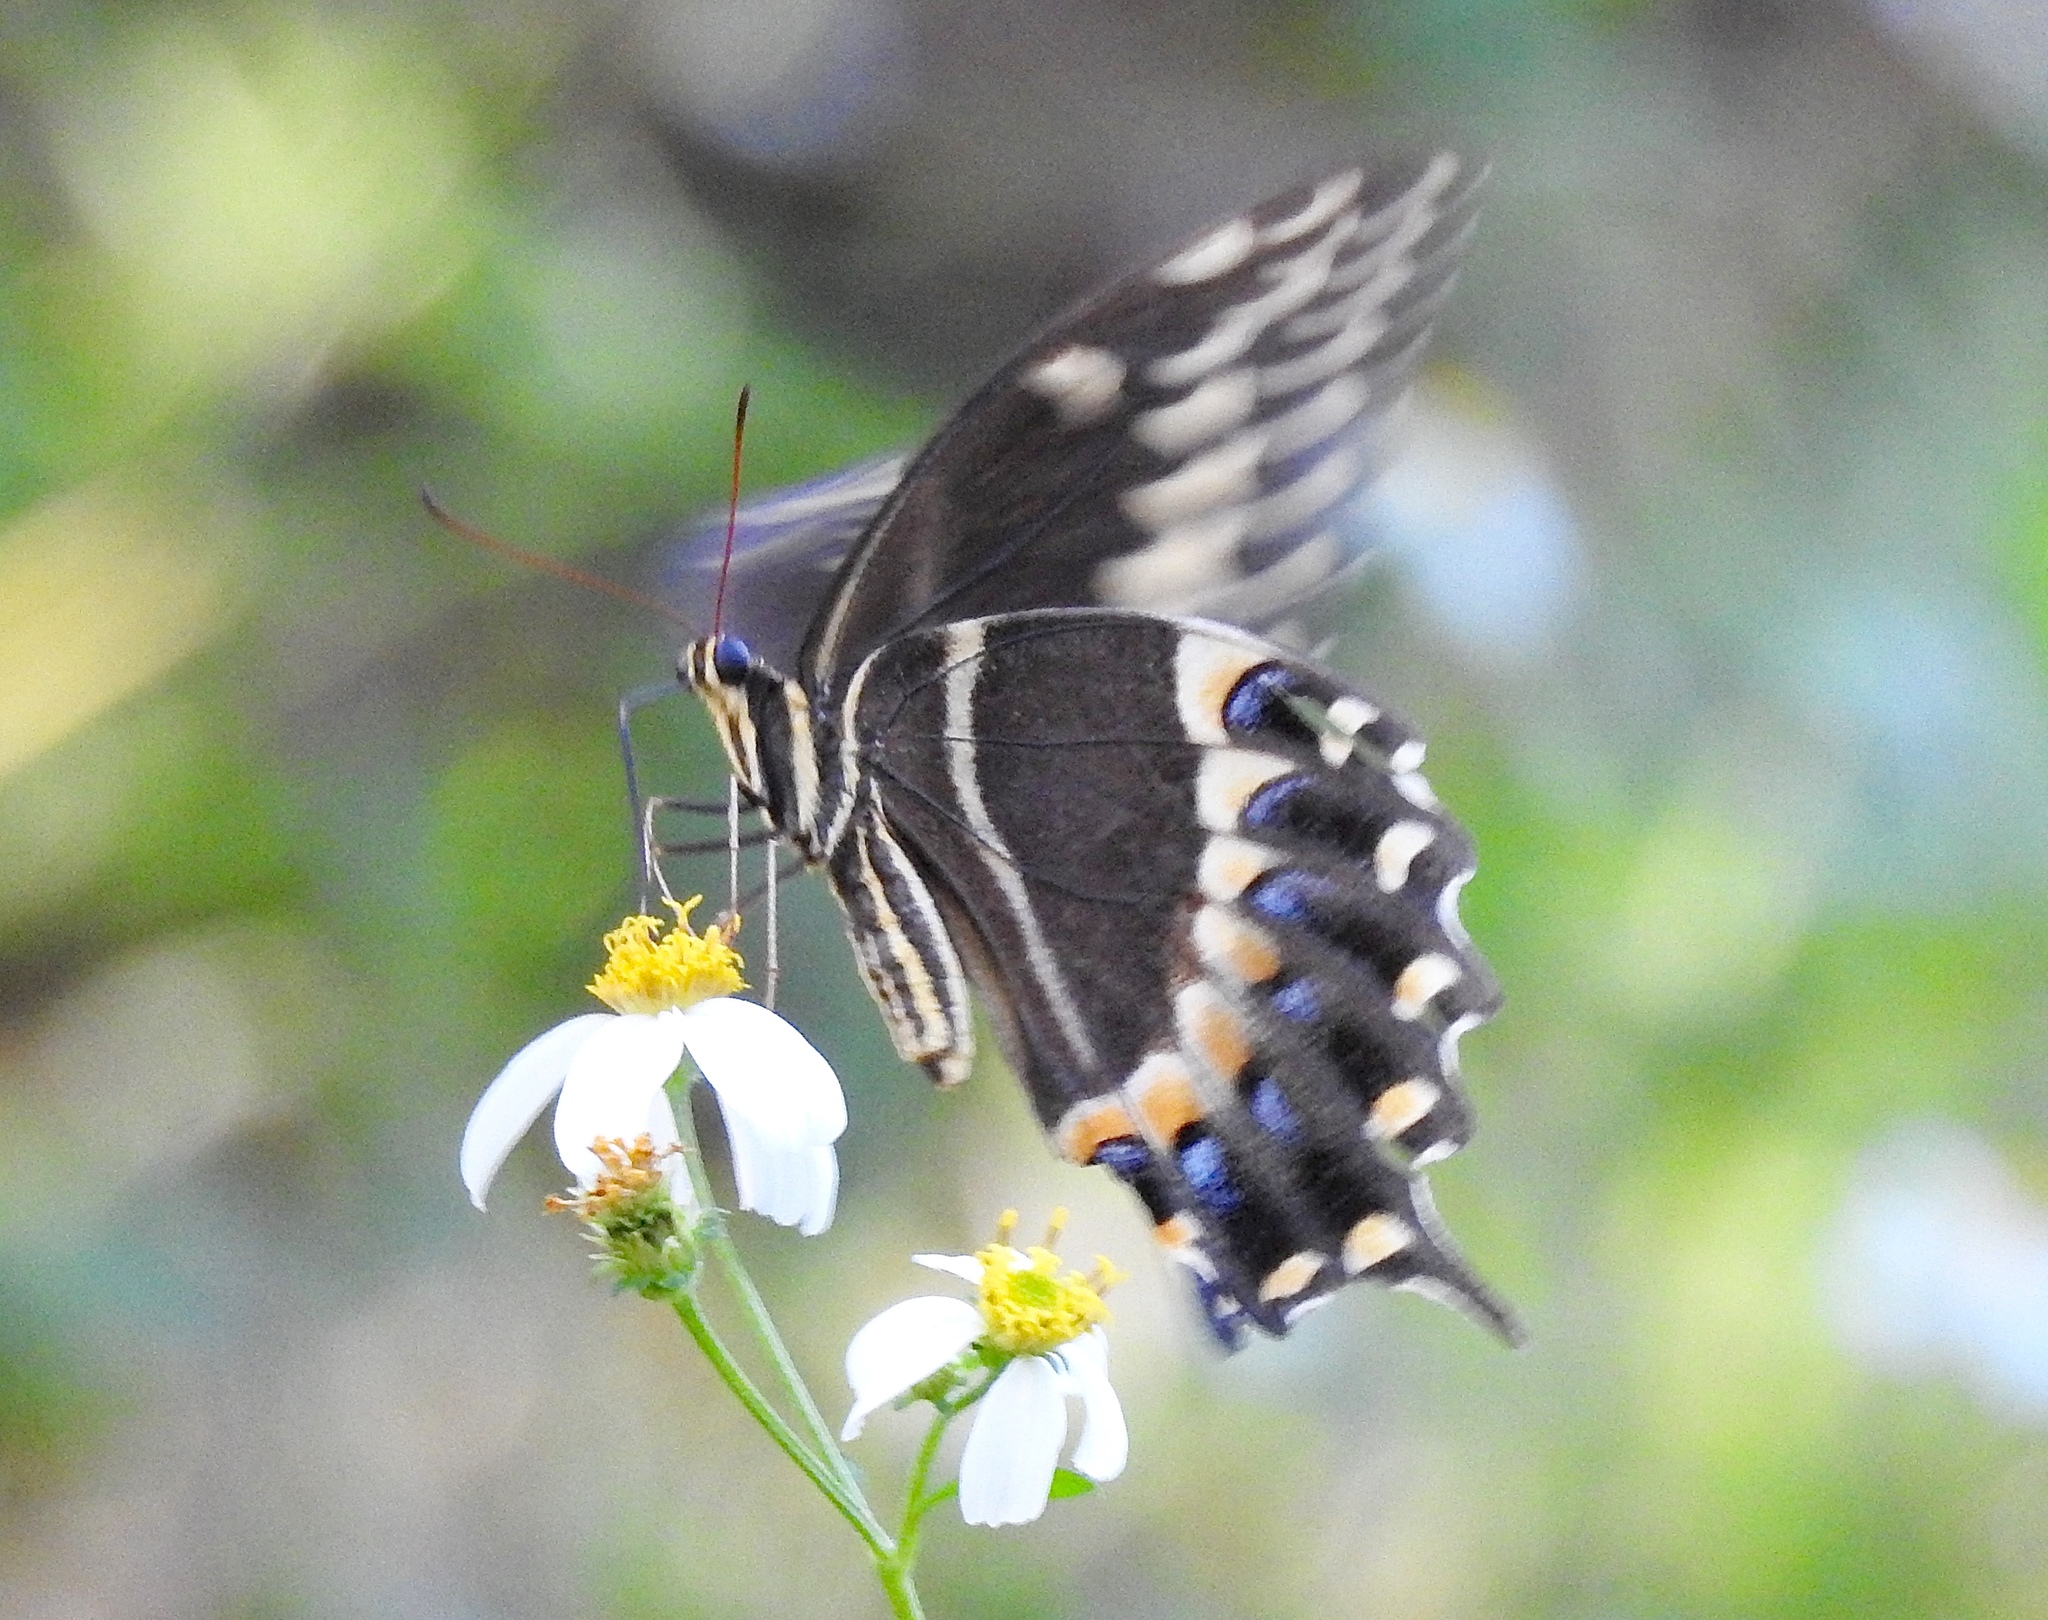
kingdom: Animalia
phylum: Arthropoda
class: Insecta
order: Lepidoptera
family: Papilionidae
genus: Papilio
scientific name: Papilio palamedes
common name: Palamedes swallowtail
